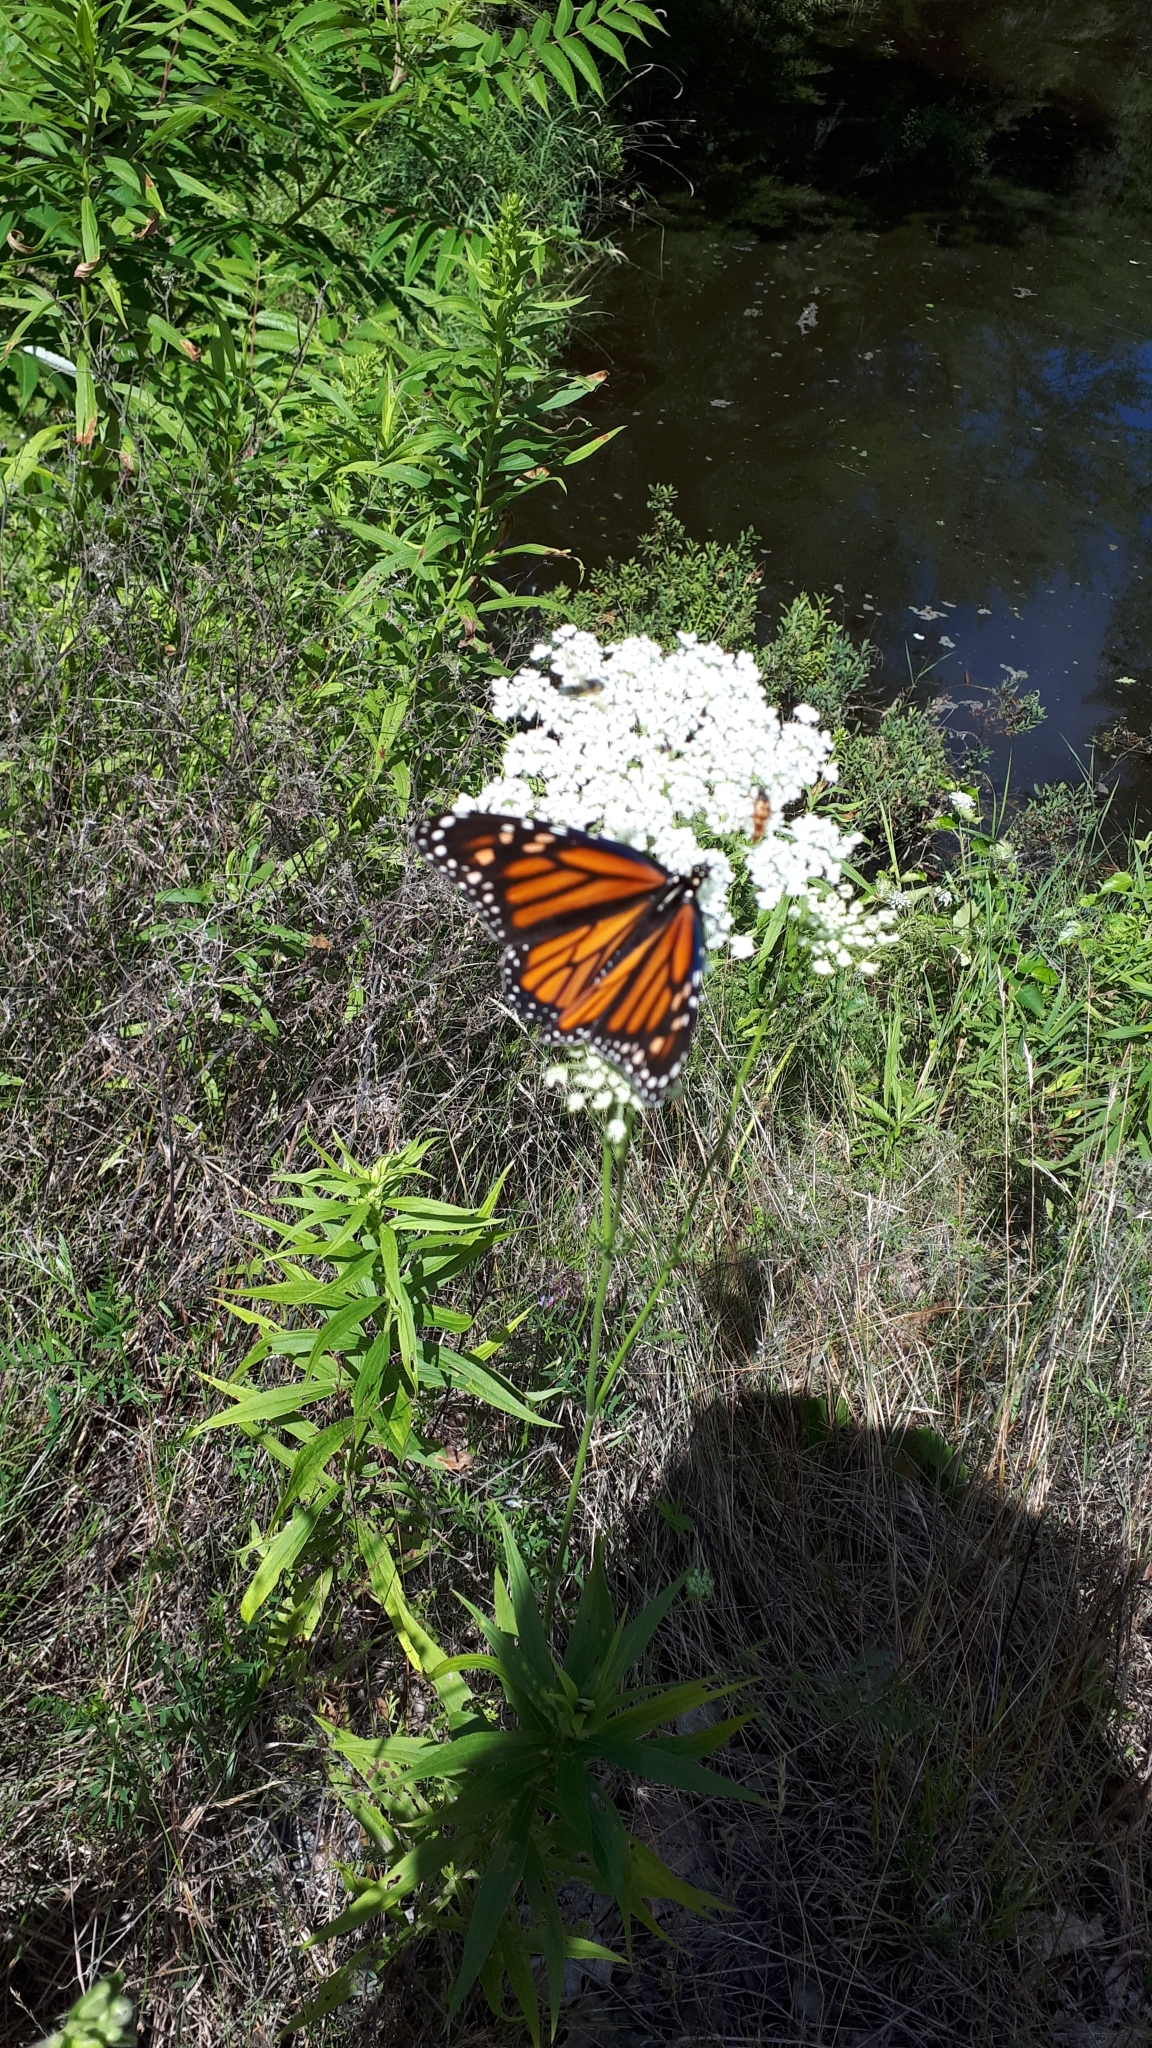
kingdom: Animalia
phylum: Arthropoda
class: Insecta
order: Lepidoptera
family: Nymphalidae
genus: Danaus
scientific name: Danaus plexippus
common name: Monarch
